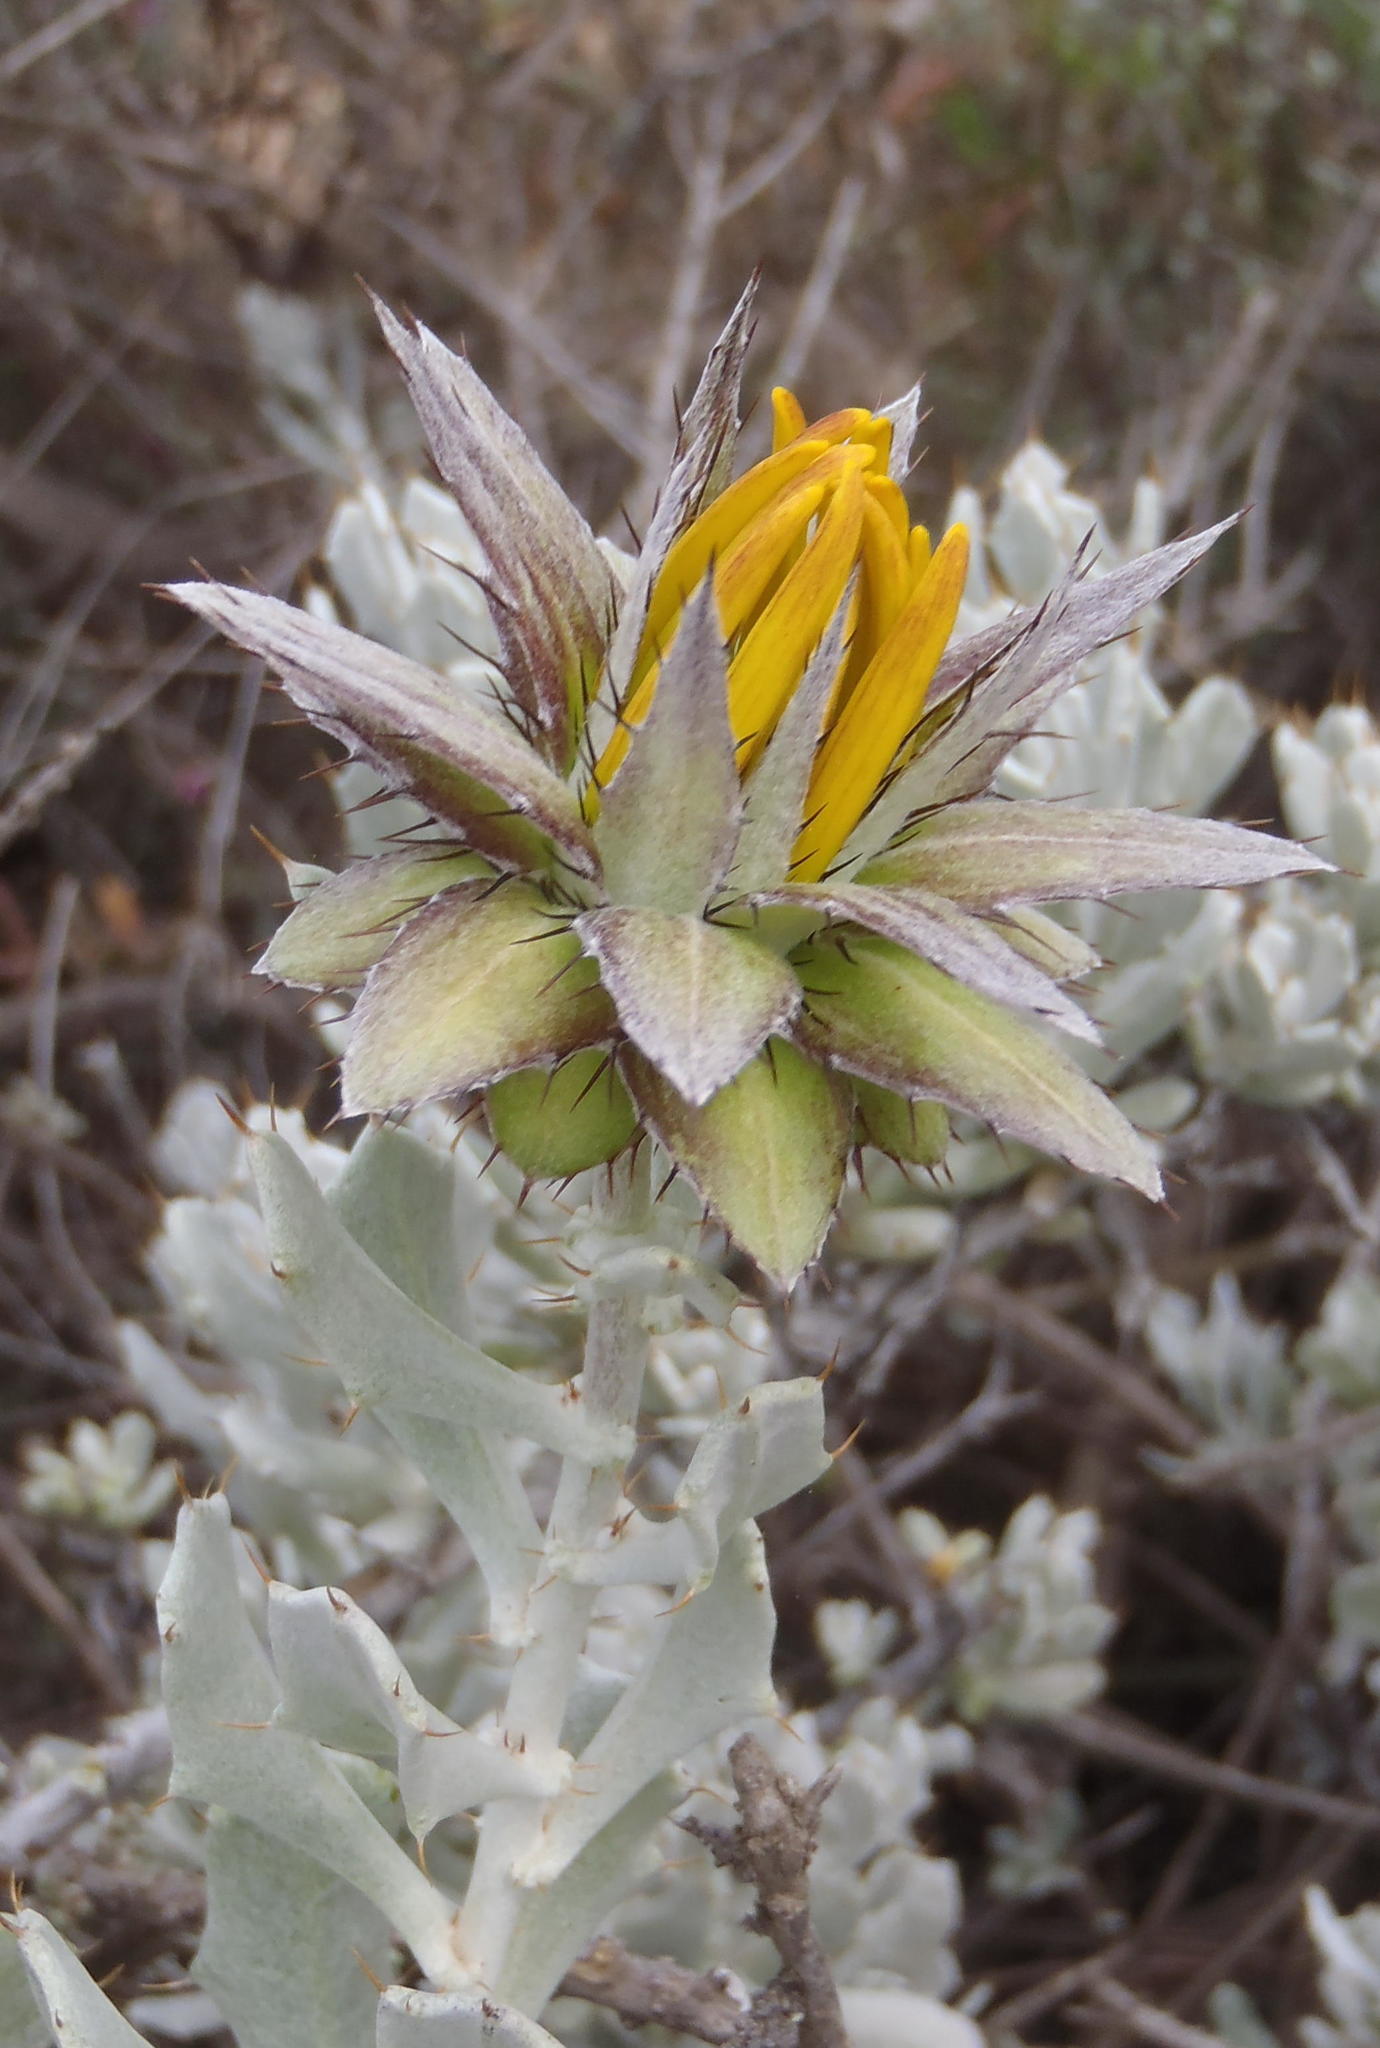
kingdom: Plantae
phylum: Tracheophyta
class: Magnoliopsida
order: Asterales
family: Asteraceae
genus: Berkheya
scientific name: Berkheya cuneata
